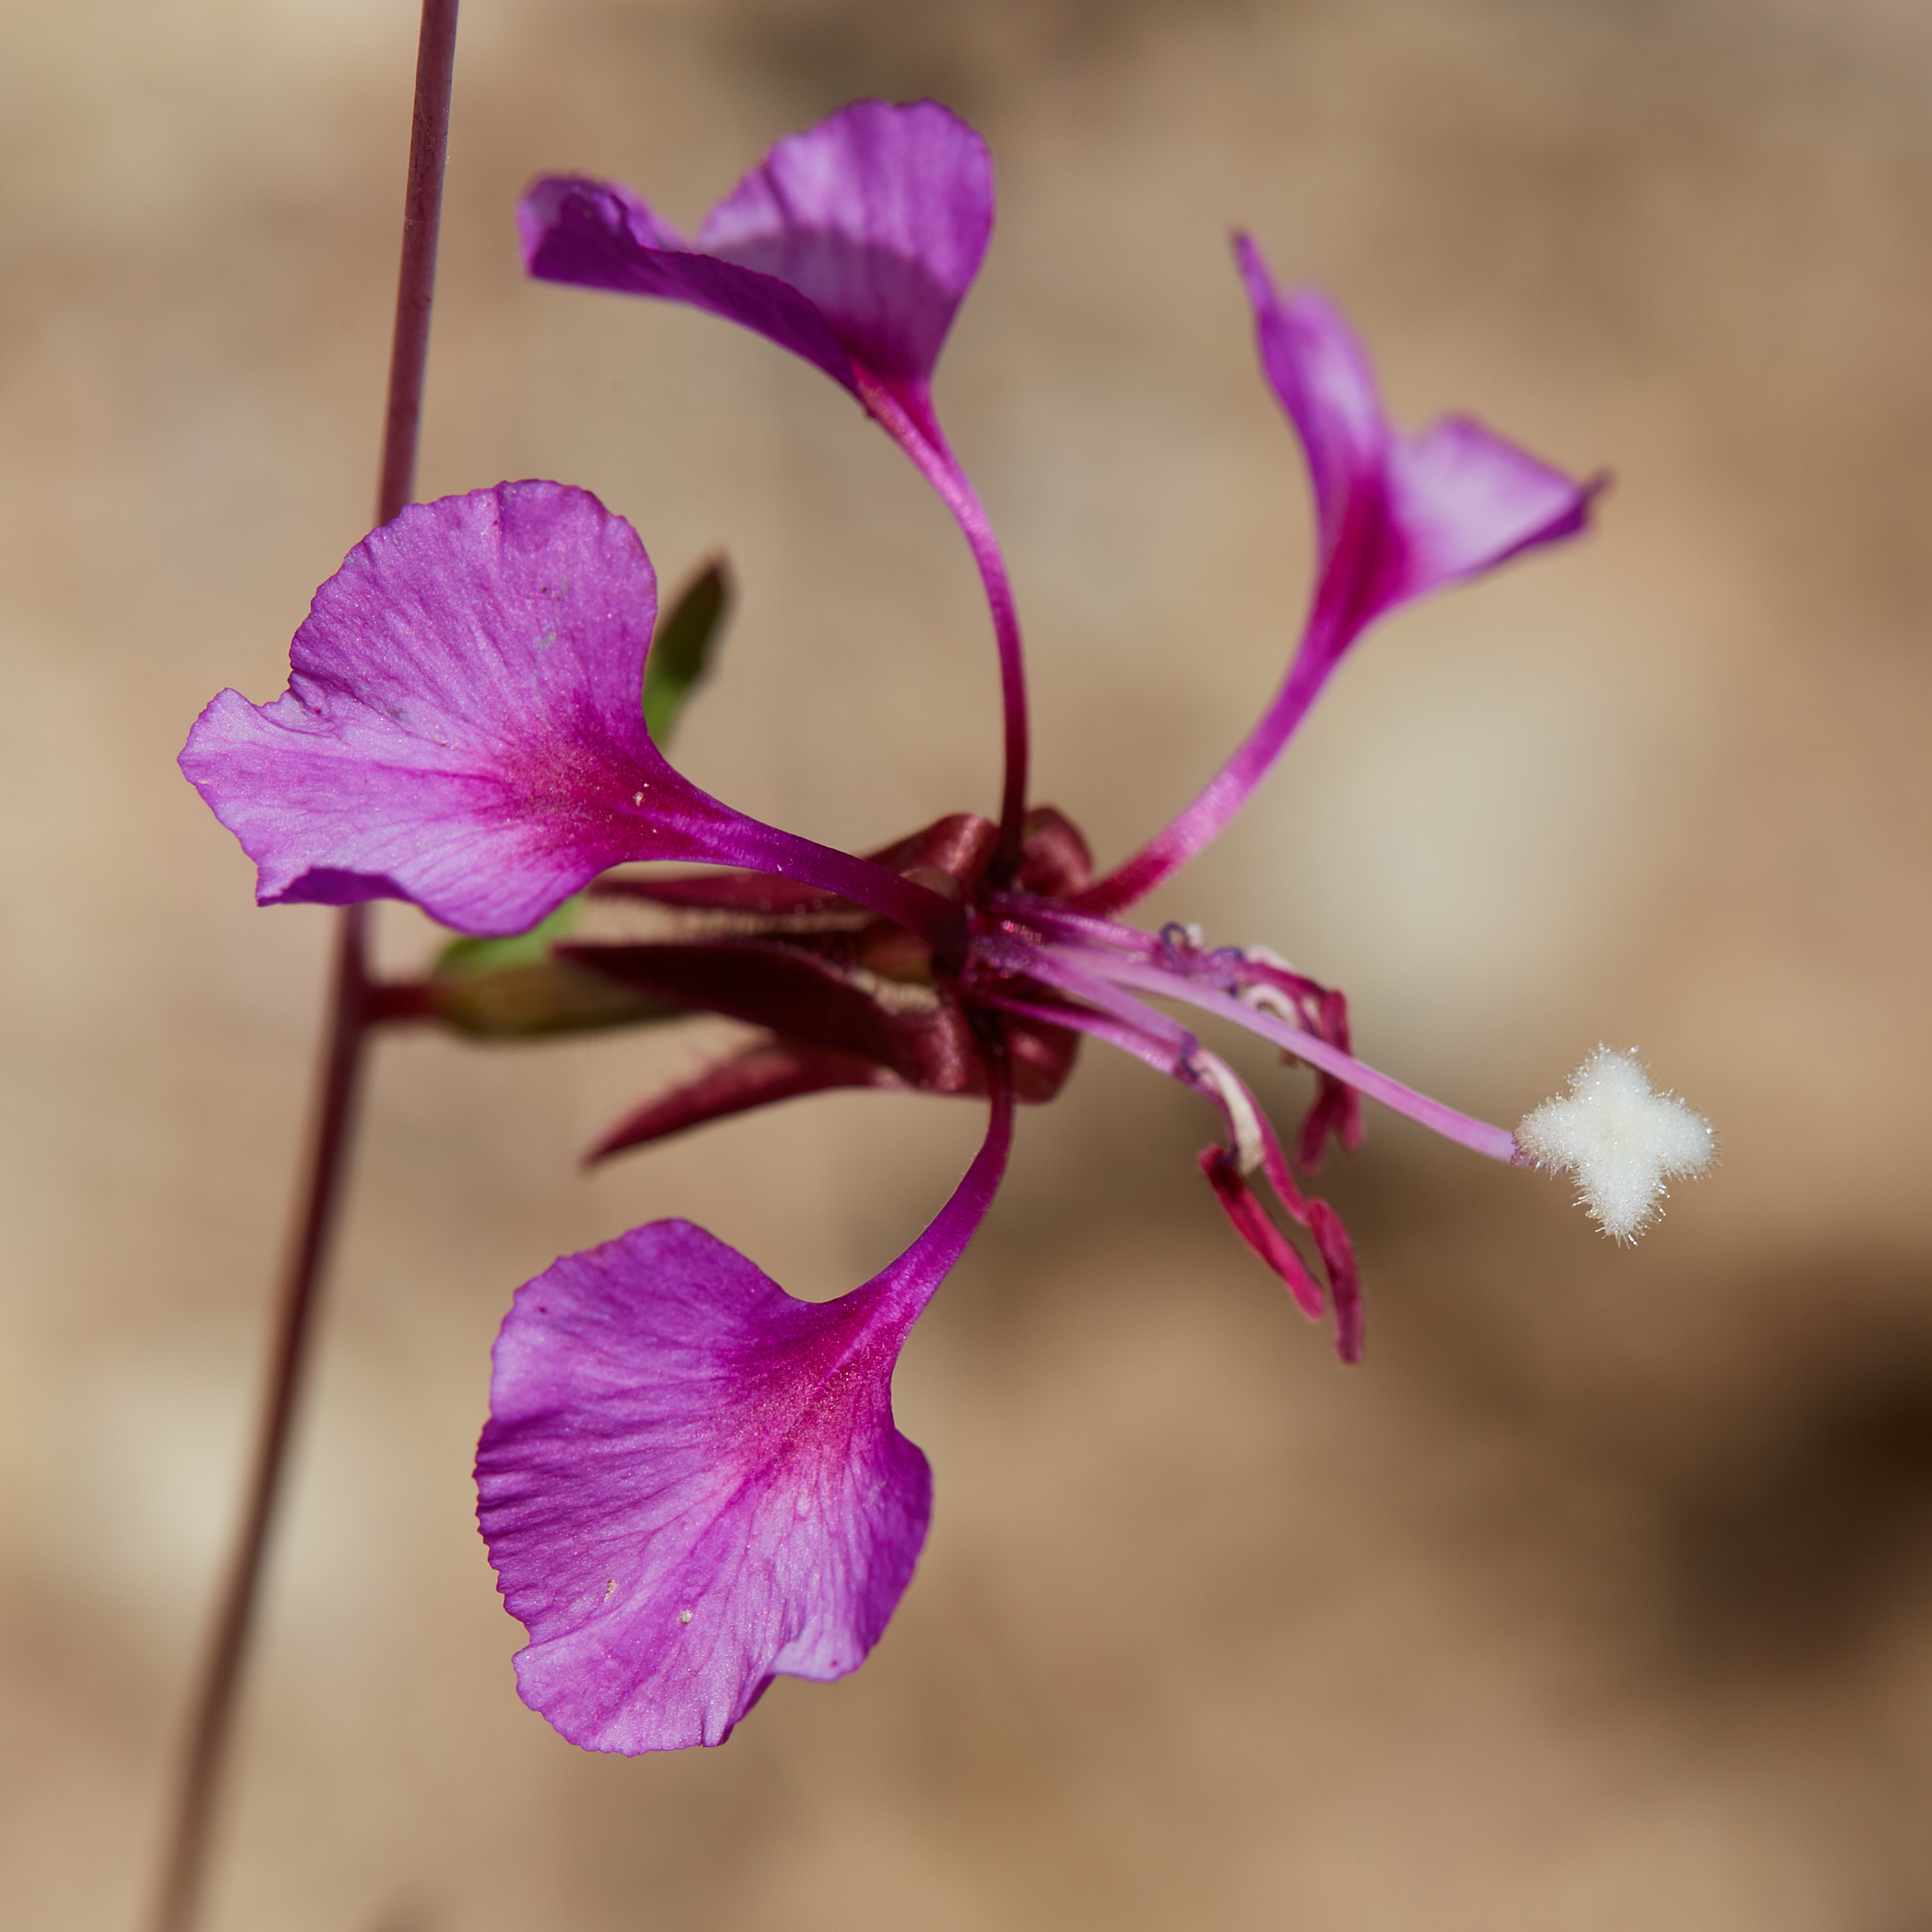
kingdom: Plantae
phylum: Tracheophyta
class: Magnoliopsida
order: Myrtales
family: Onagraceae
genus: Clarkia
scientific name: Clarkia unguiculata
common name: Clarkia
